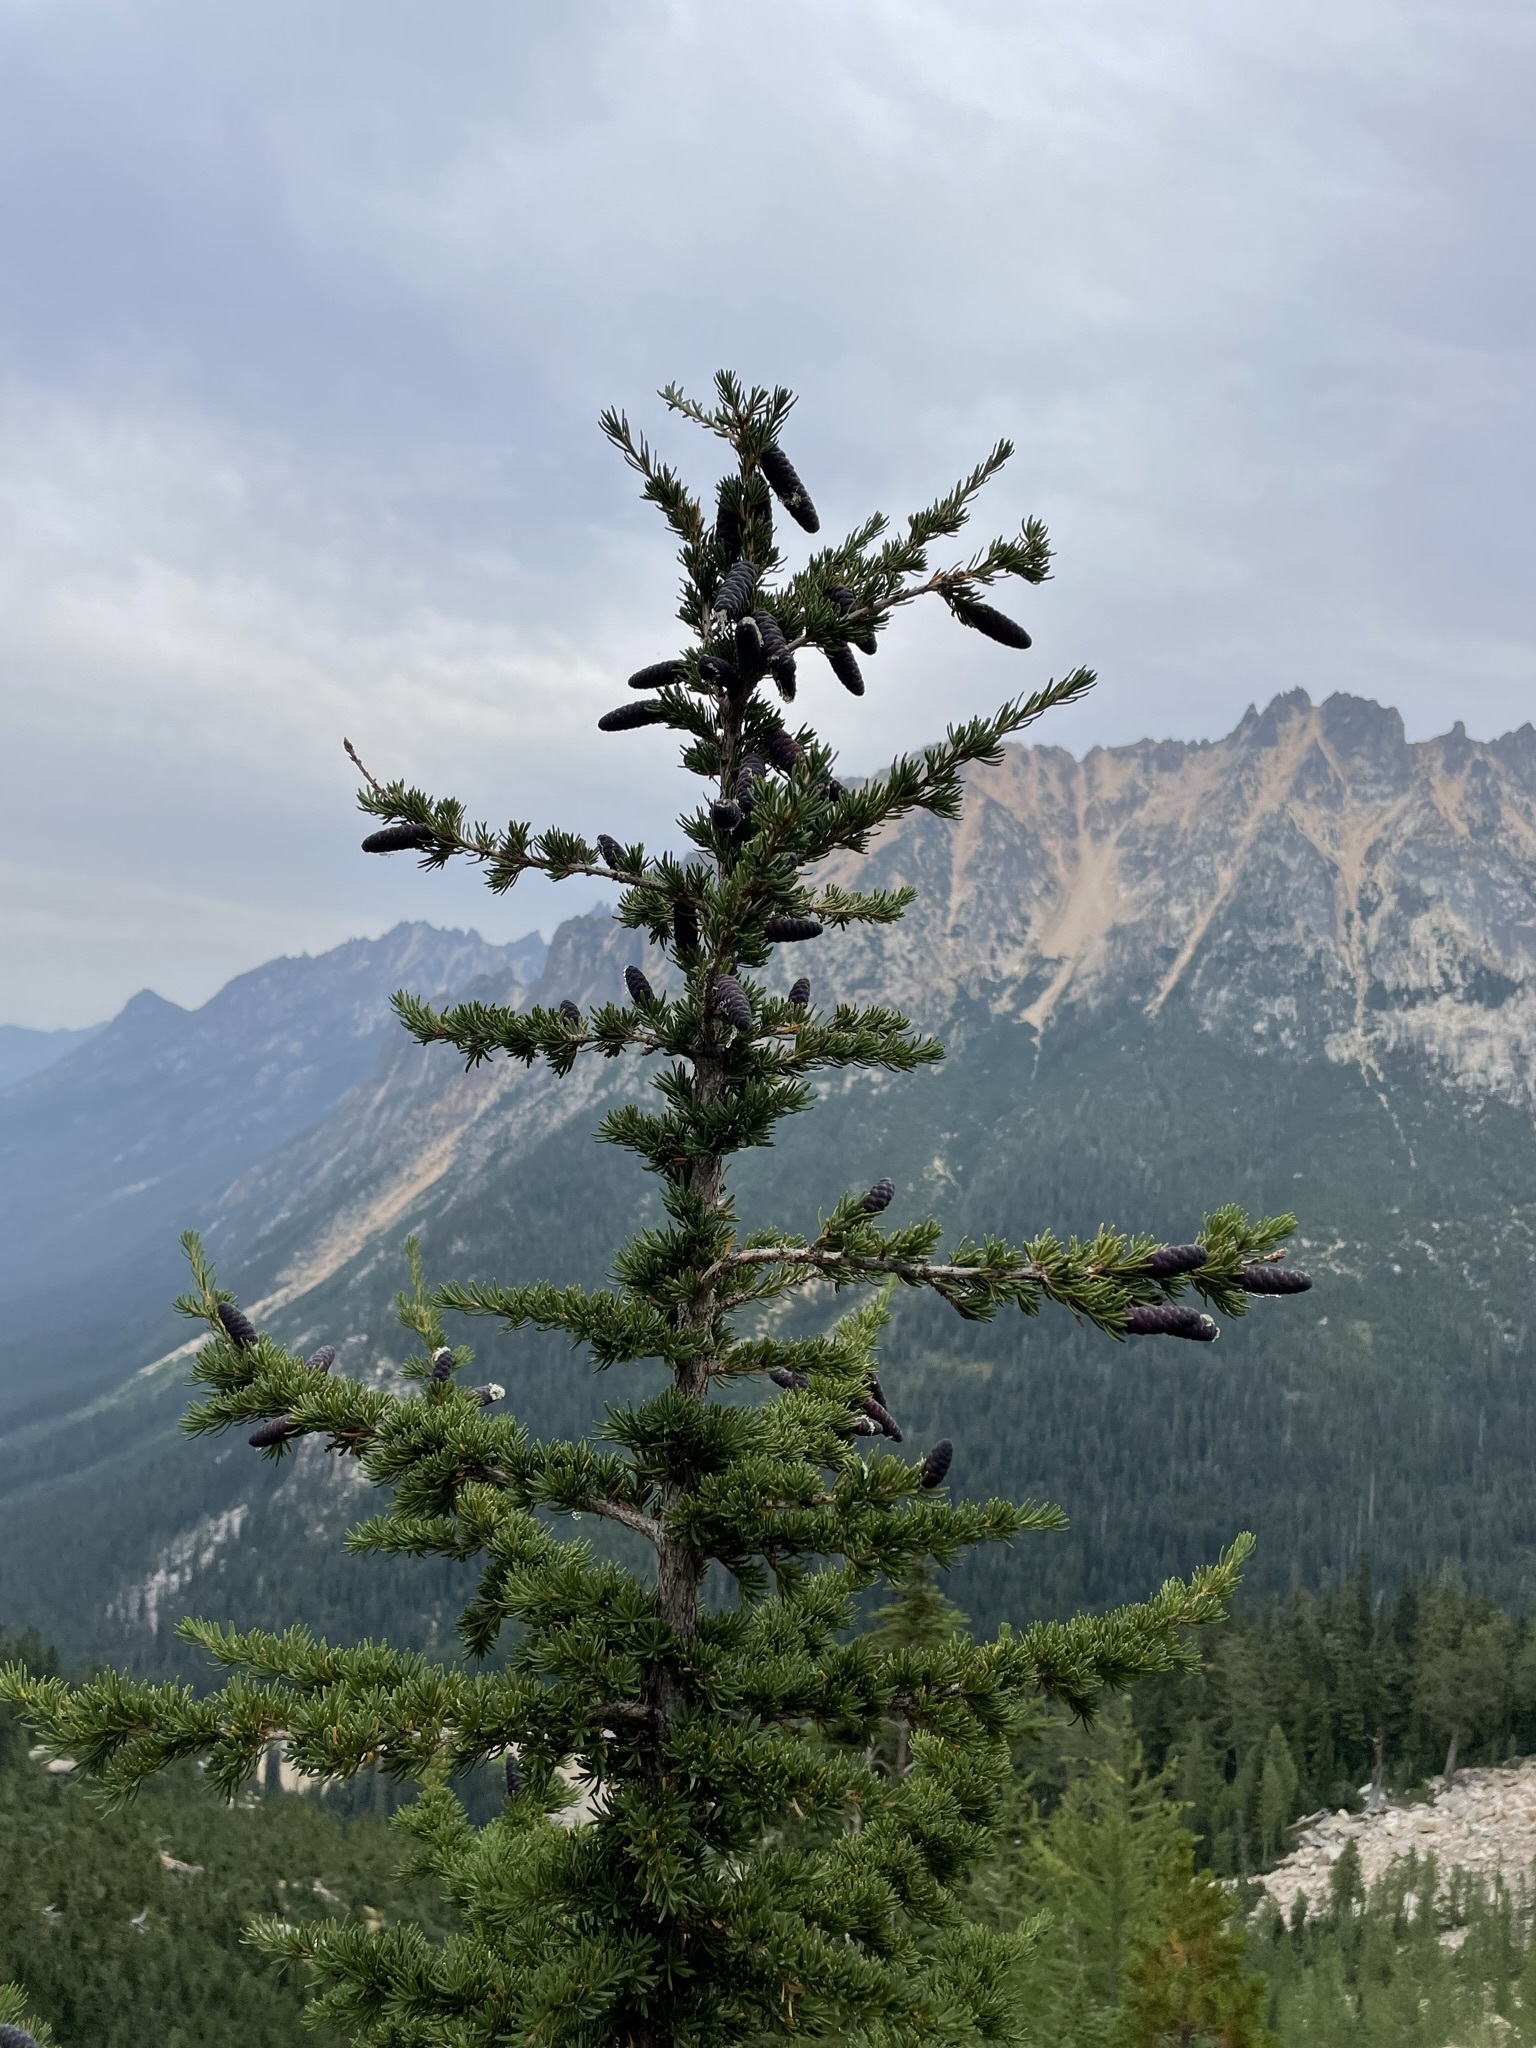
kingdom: Plantae
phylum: Tracheophyta
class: Pinopsida
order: Pinales
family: Pinaceae
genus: Tsuga
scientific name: Tsuga mertensiana
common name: Mountain hemlock
